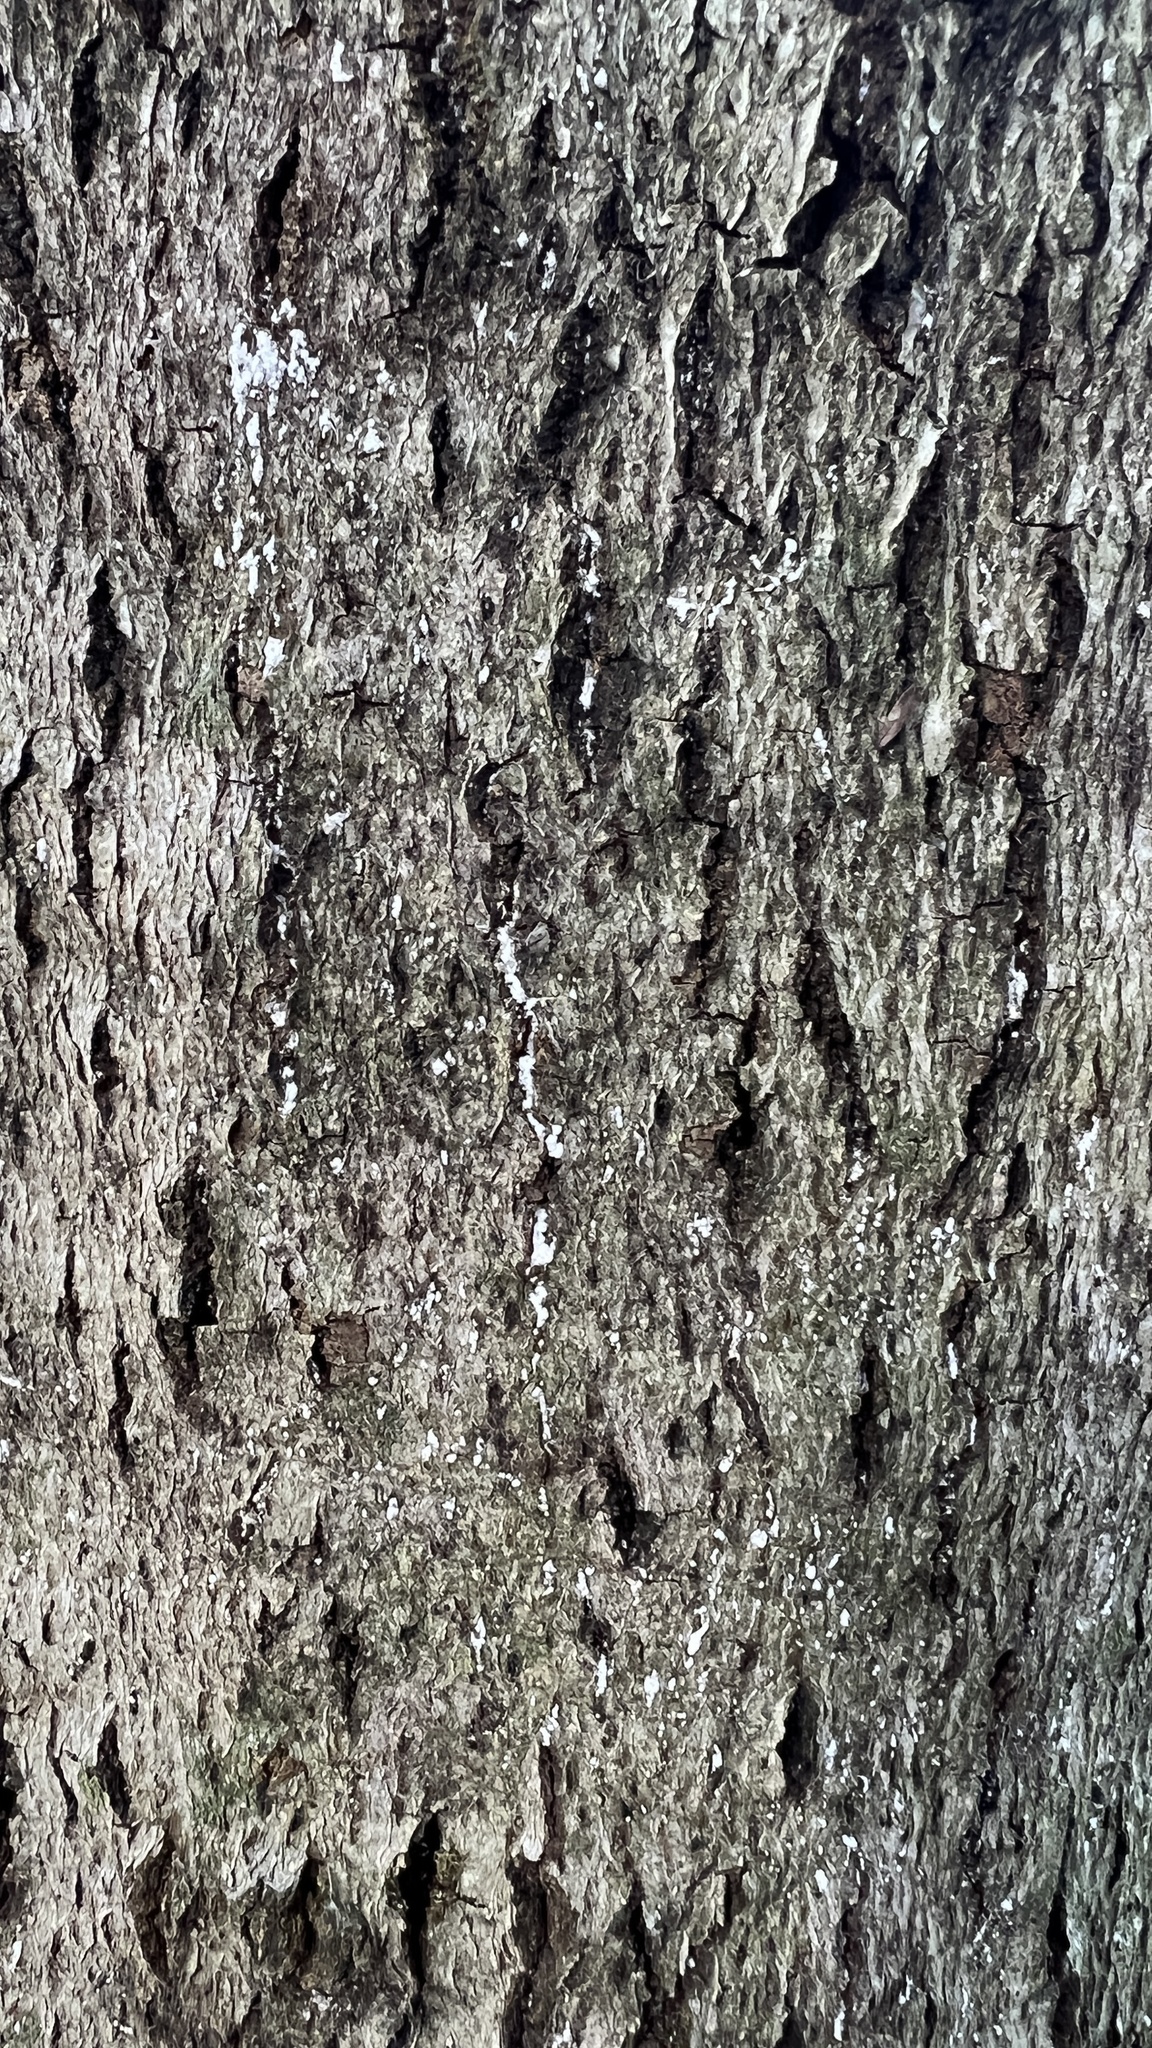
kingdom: Animalia
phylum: Arthropoda
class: Insecta
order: Hemiptera
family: Eriococcidae
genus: Cryptococcus
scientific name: Cryptococcus fagisuga
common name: Beech scale
